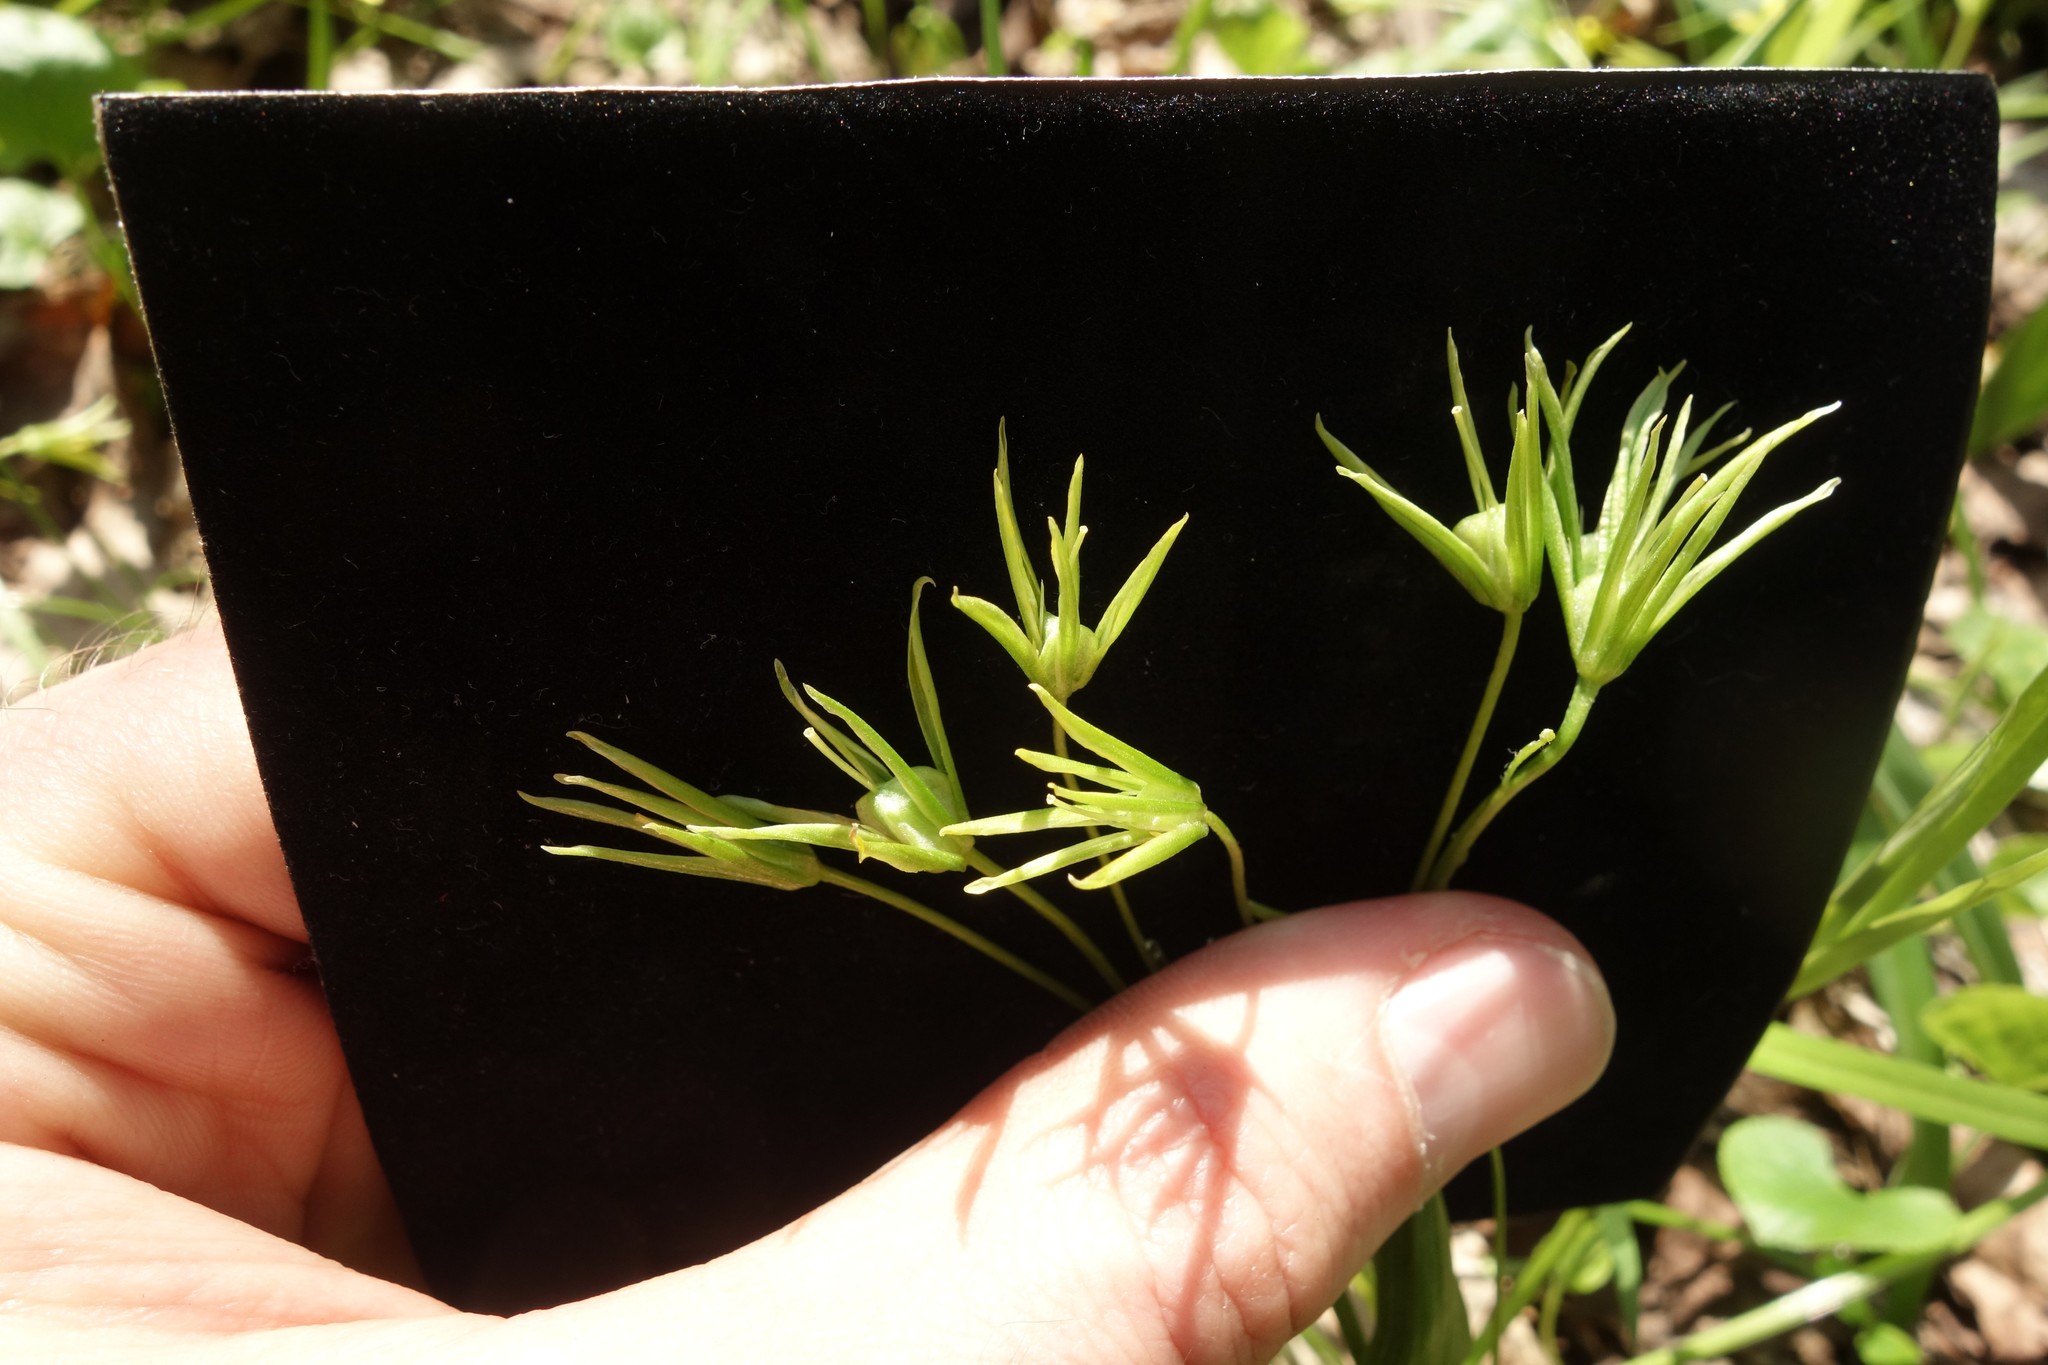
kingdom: Plantae
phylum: Tracheophyta
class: Liliopsida
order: Liliales
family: Liliaceae
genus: Gagea
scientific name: Gagea minima
